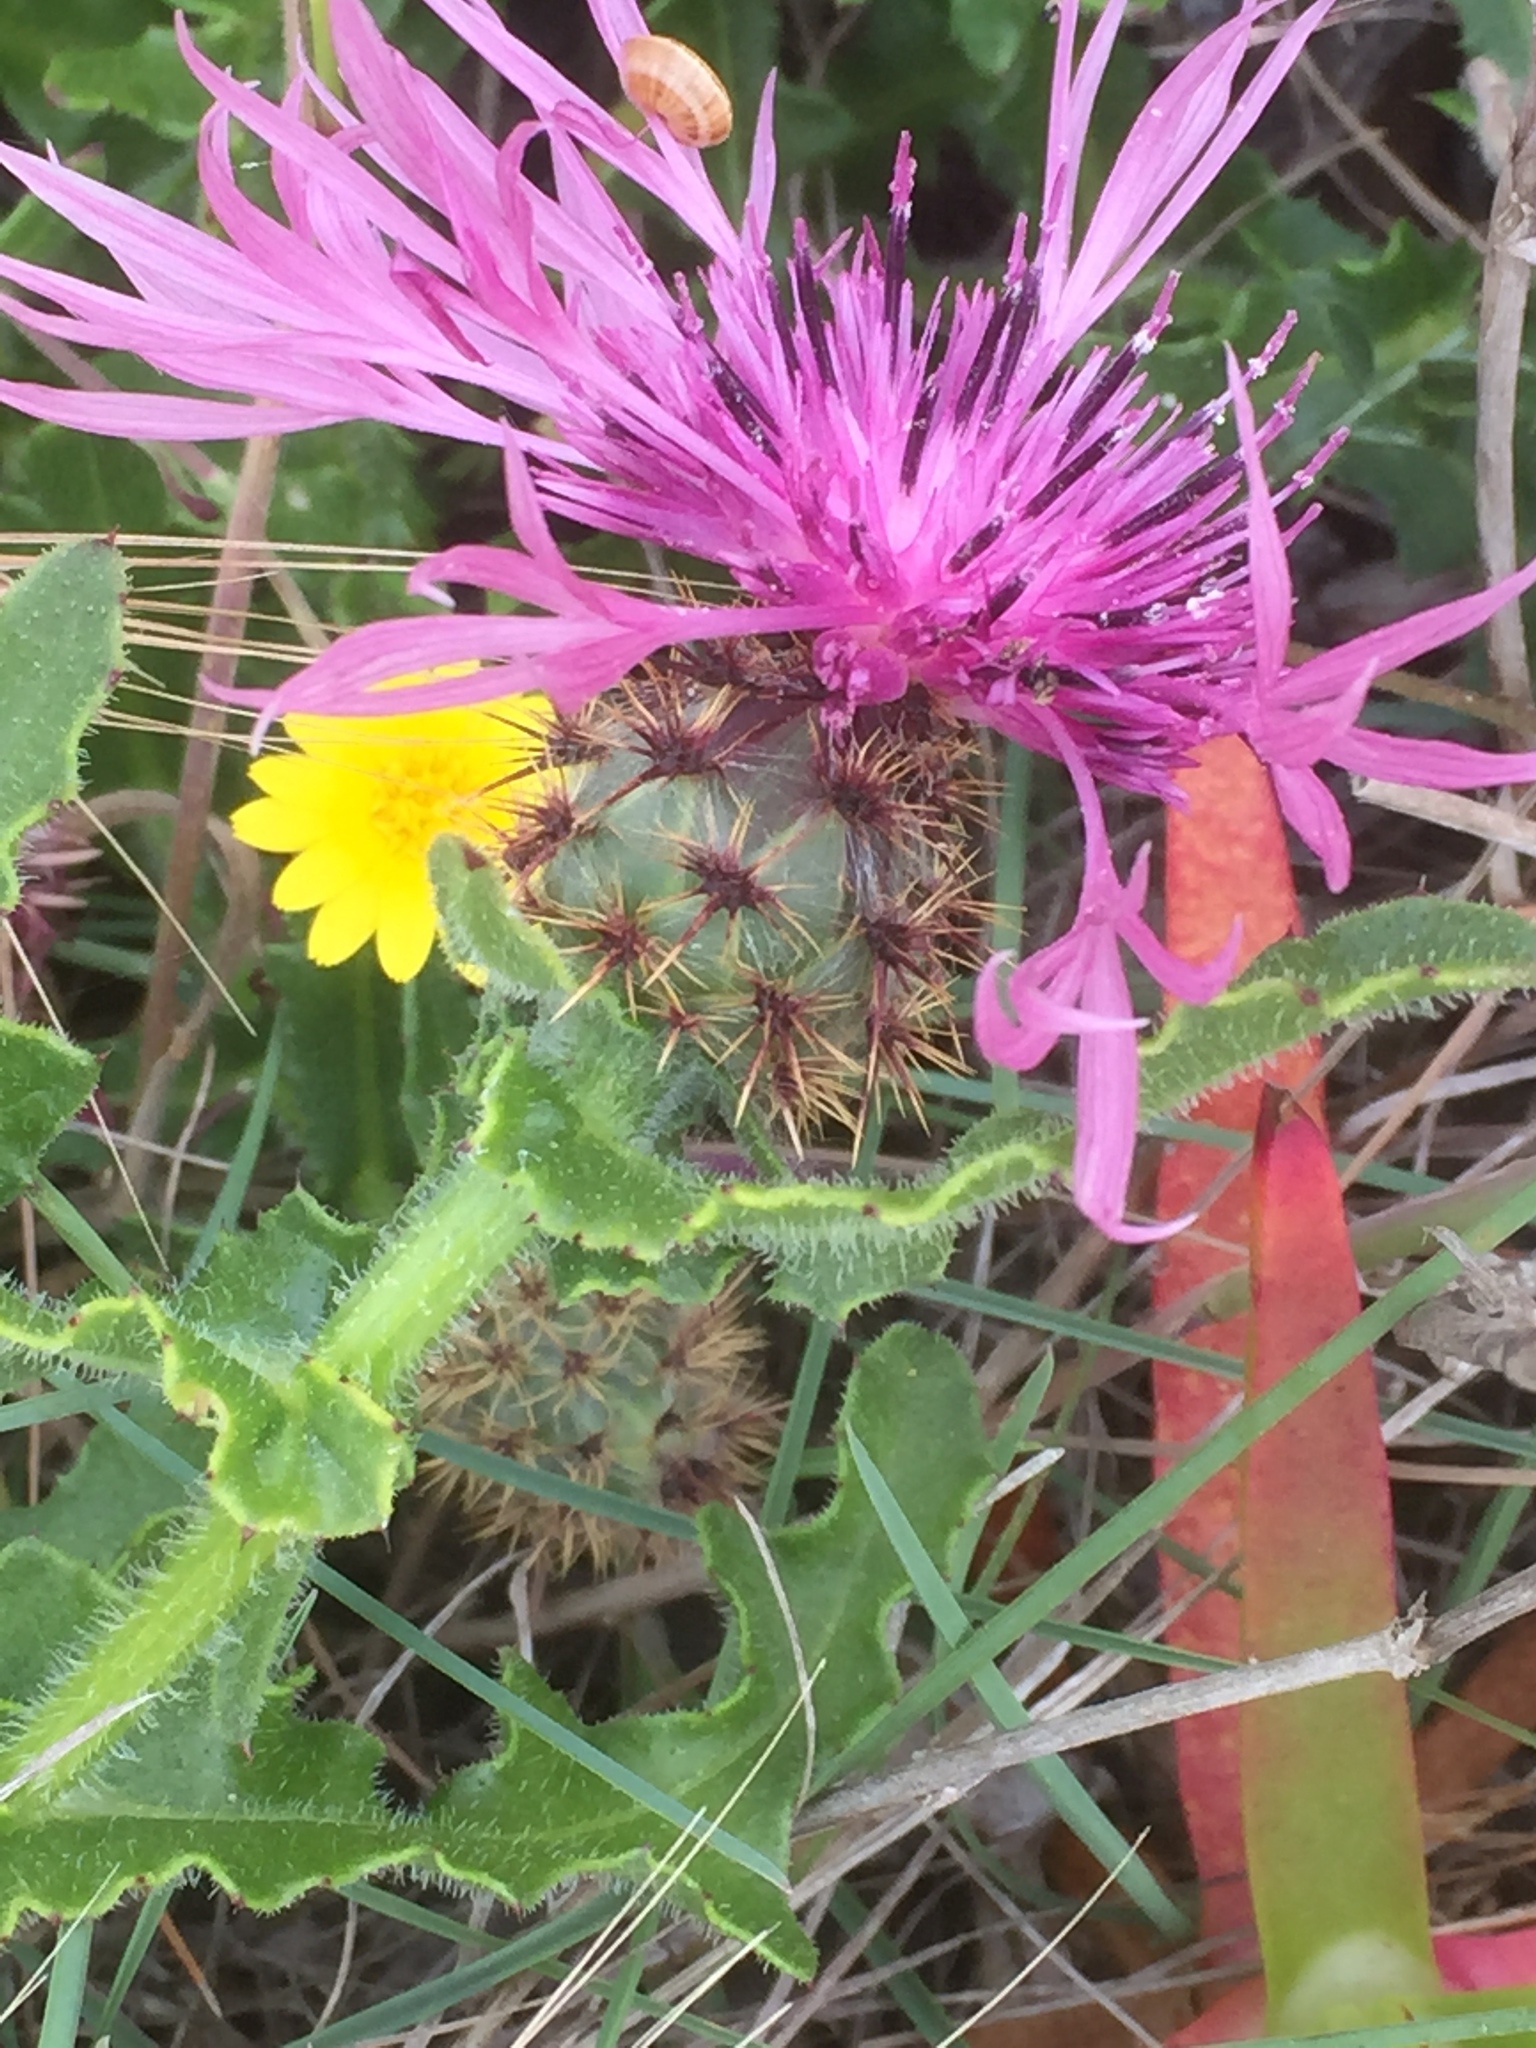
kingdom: Plantae
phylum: Tracheophyta
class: Magnoliopsida
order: Asterales
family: Asteraceae
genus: Centaurea
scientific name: Centaurea polyacantha
